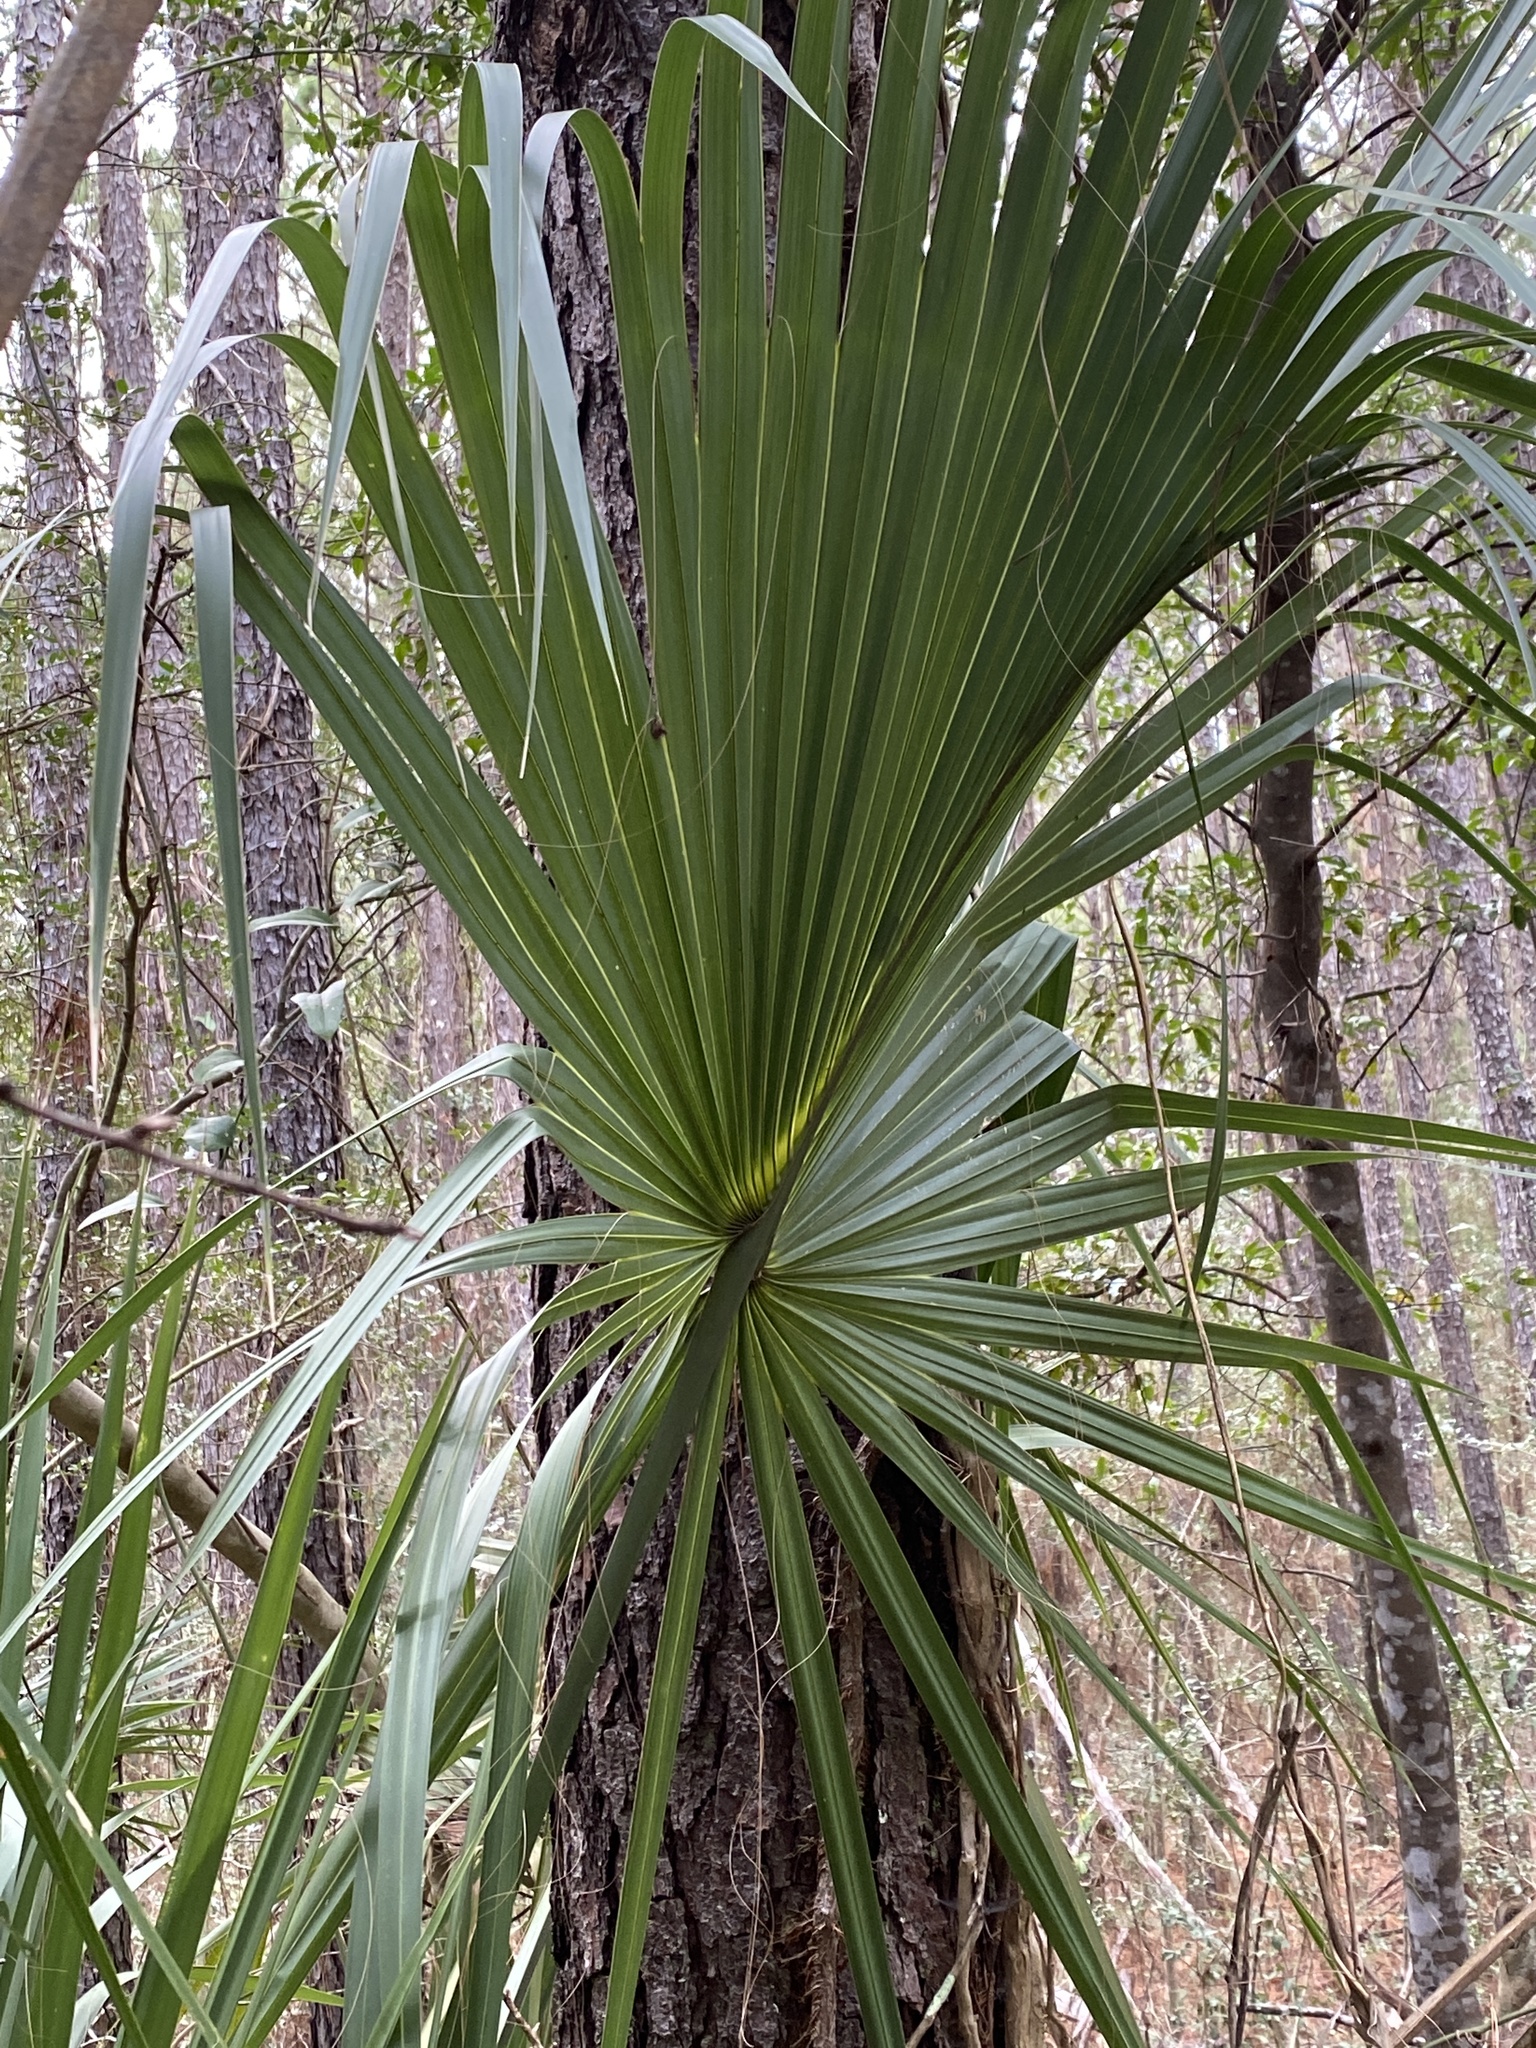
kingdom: Plantae
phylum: Tracheophyta
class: Liliopsida
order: Arecales
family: Arecaceae
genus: Sabal
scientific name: Sabal palmetto
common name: Blue palmetto
